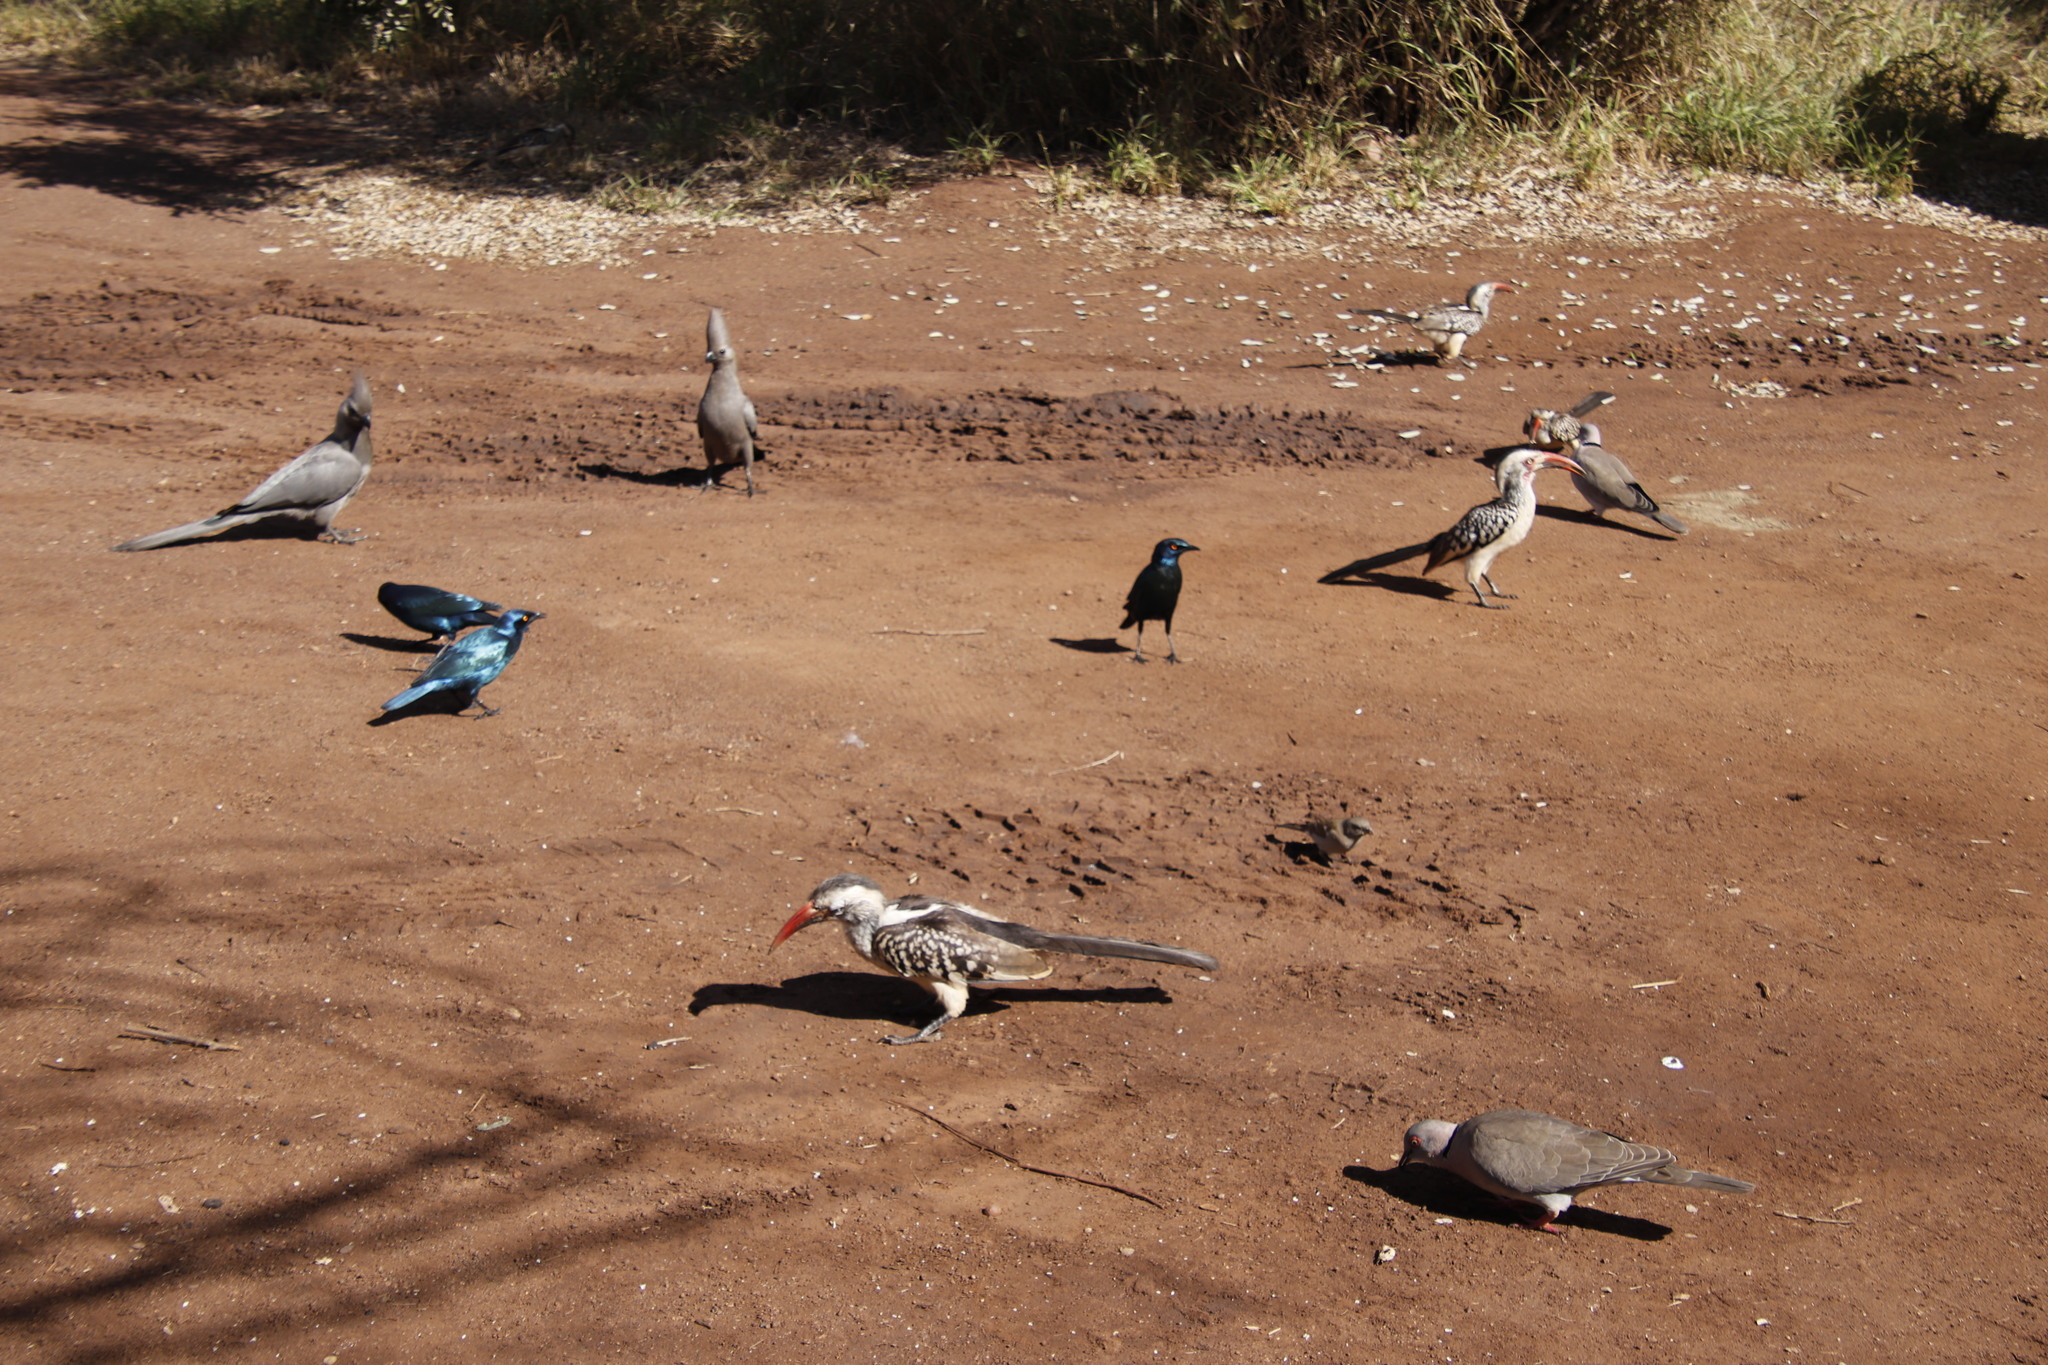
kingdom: Animalia
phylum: Chordata
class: Aves
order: Bucerotiformes
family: Bucerotidae
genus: Tockus
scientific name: Tockus rufirostris
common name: Southern red-billed hornbill
